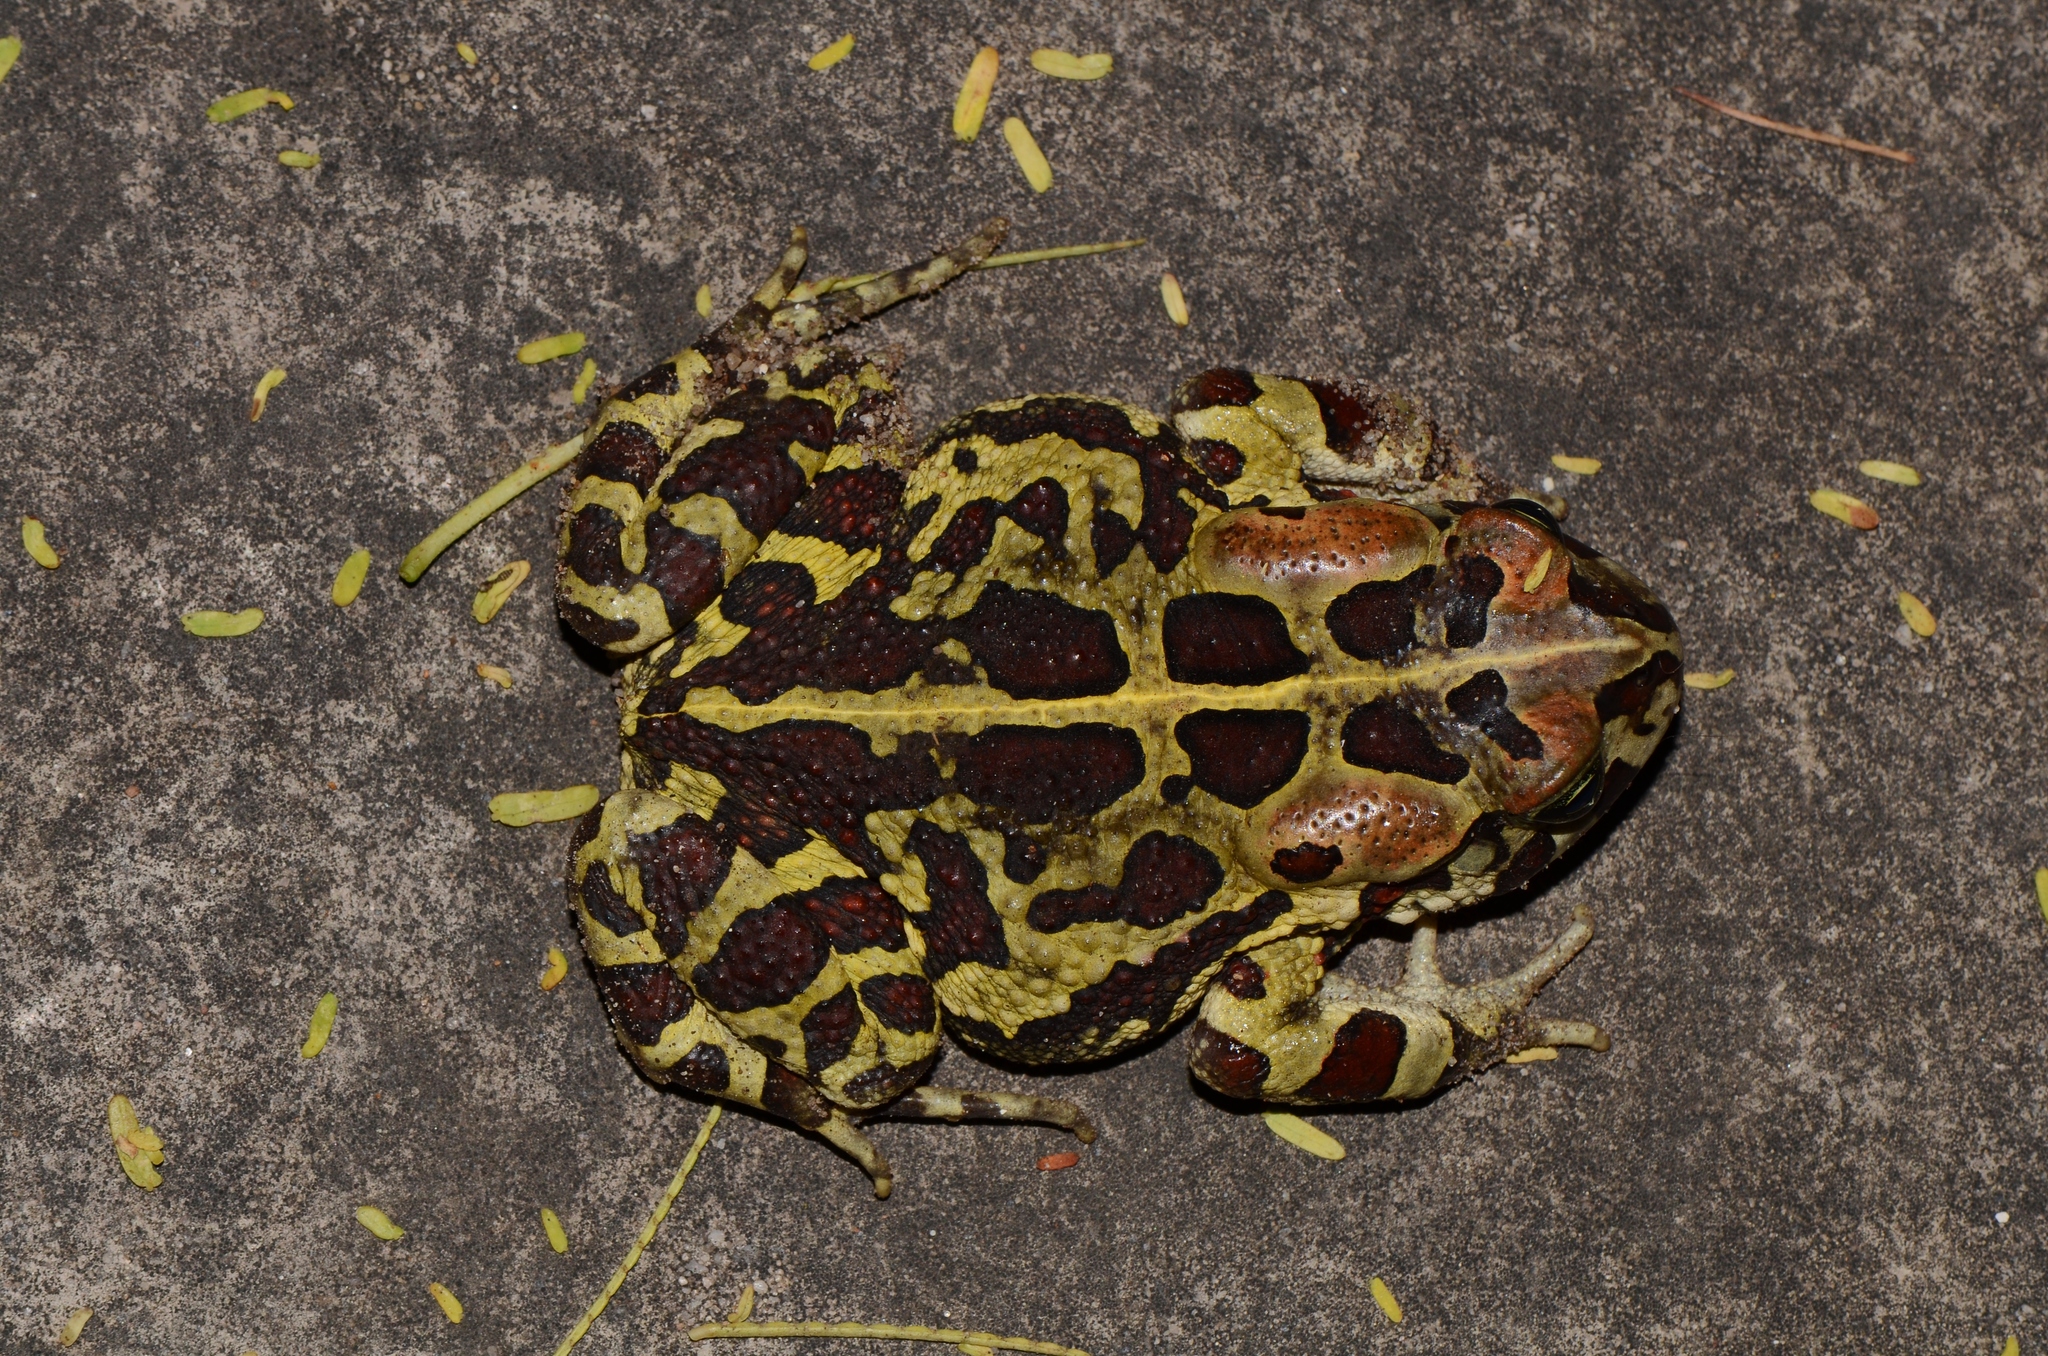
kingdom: Animalia
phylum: Chordata
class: Amphibia
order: Anura
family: Bufonidae
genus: Sclerophrys
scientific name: Sclerophrys pantherina
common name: Panther toad
